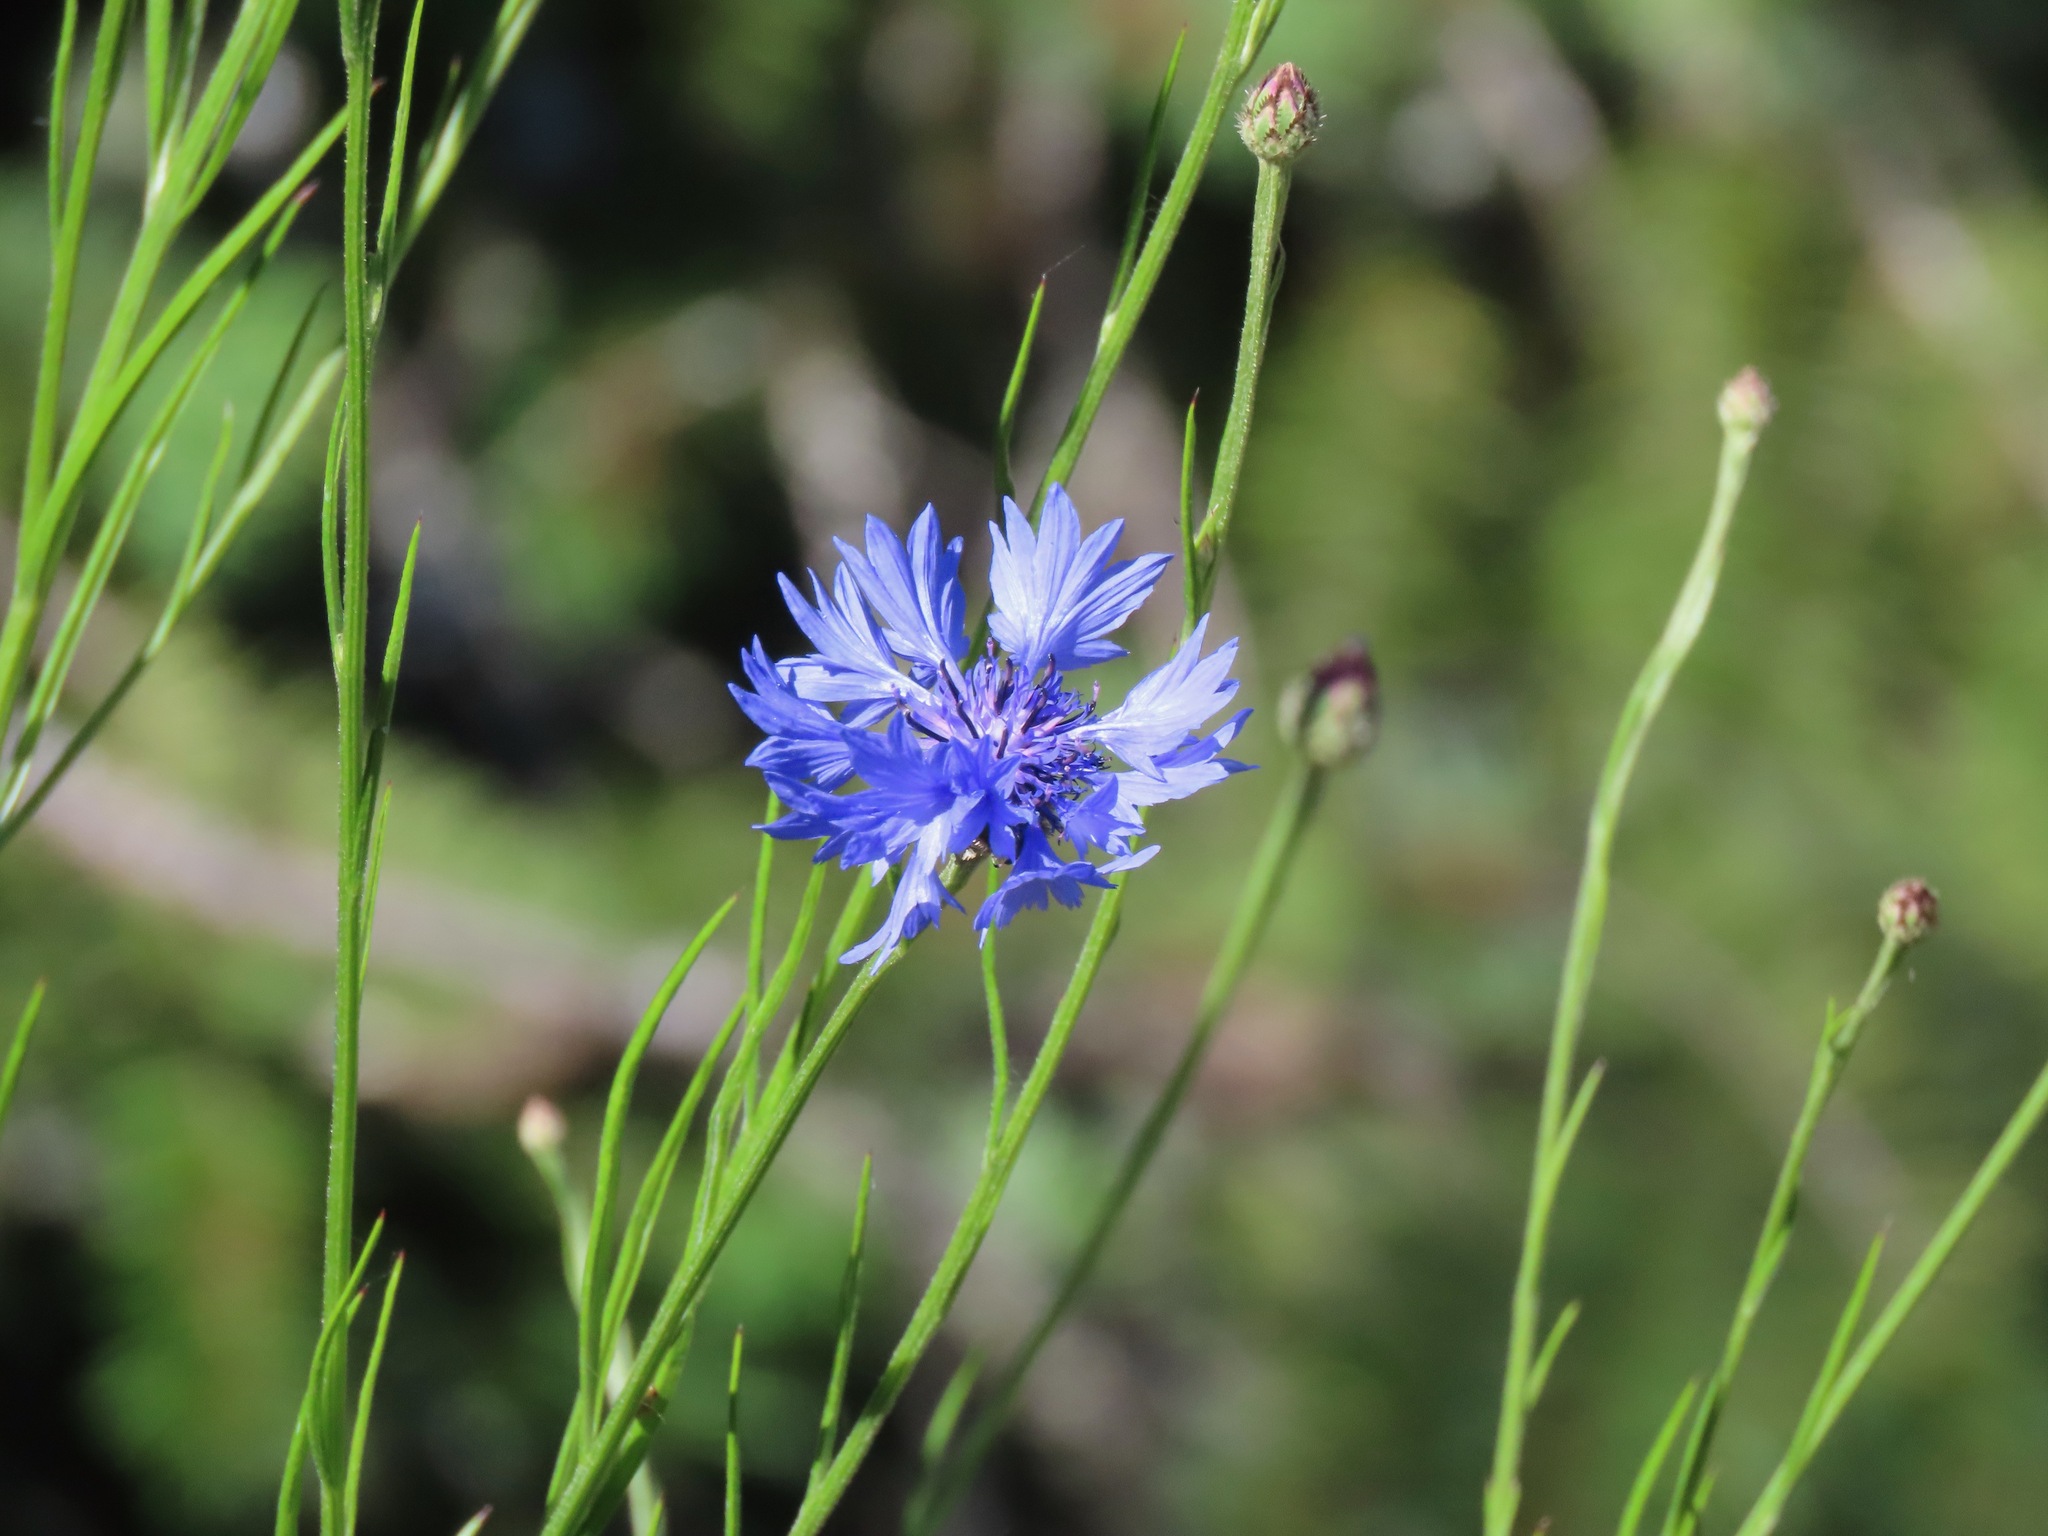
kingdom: Plantae
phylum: Tracheophyta
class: Magnoliopsida
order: Asterales
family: Asteraceae
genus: Centaurea
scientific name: Centaurea cyanus
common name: Cornflower
